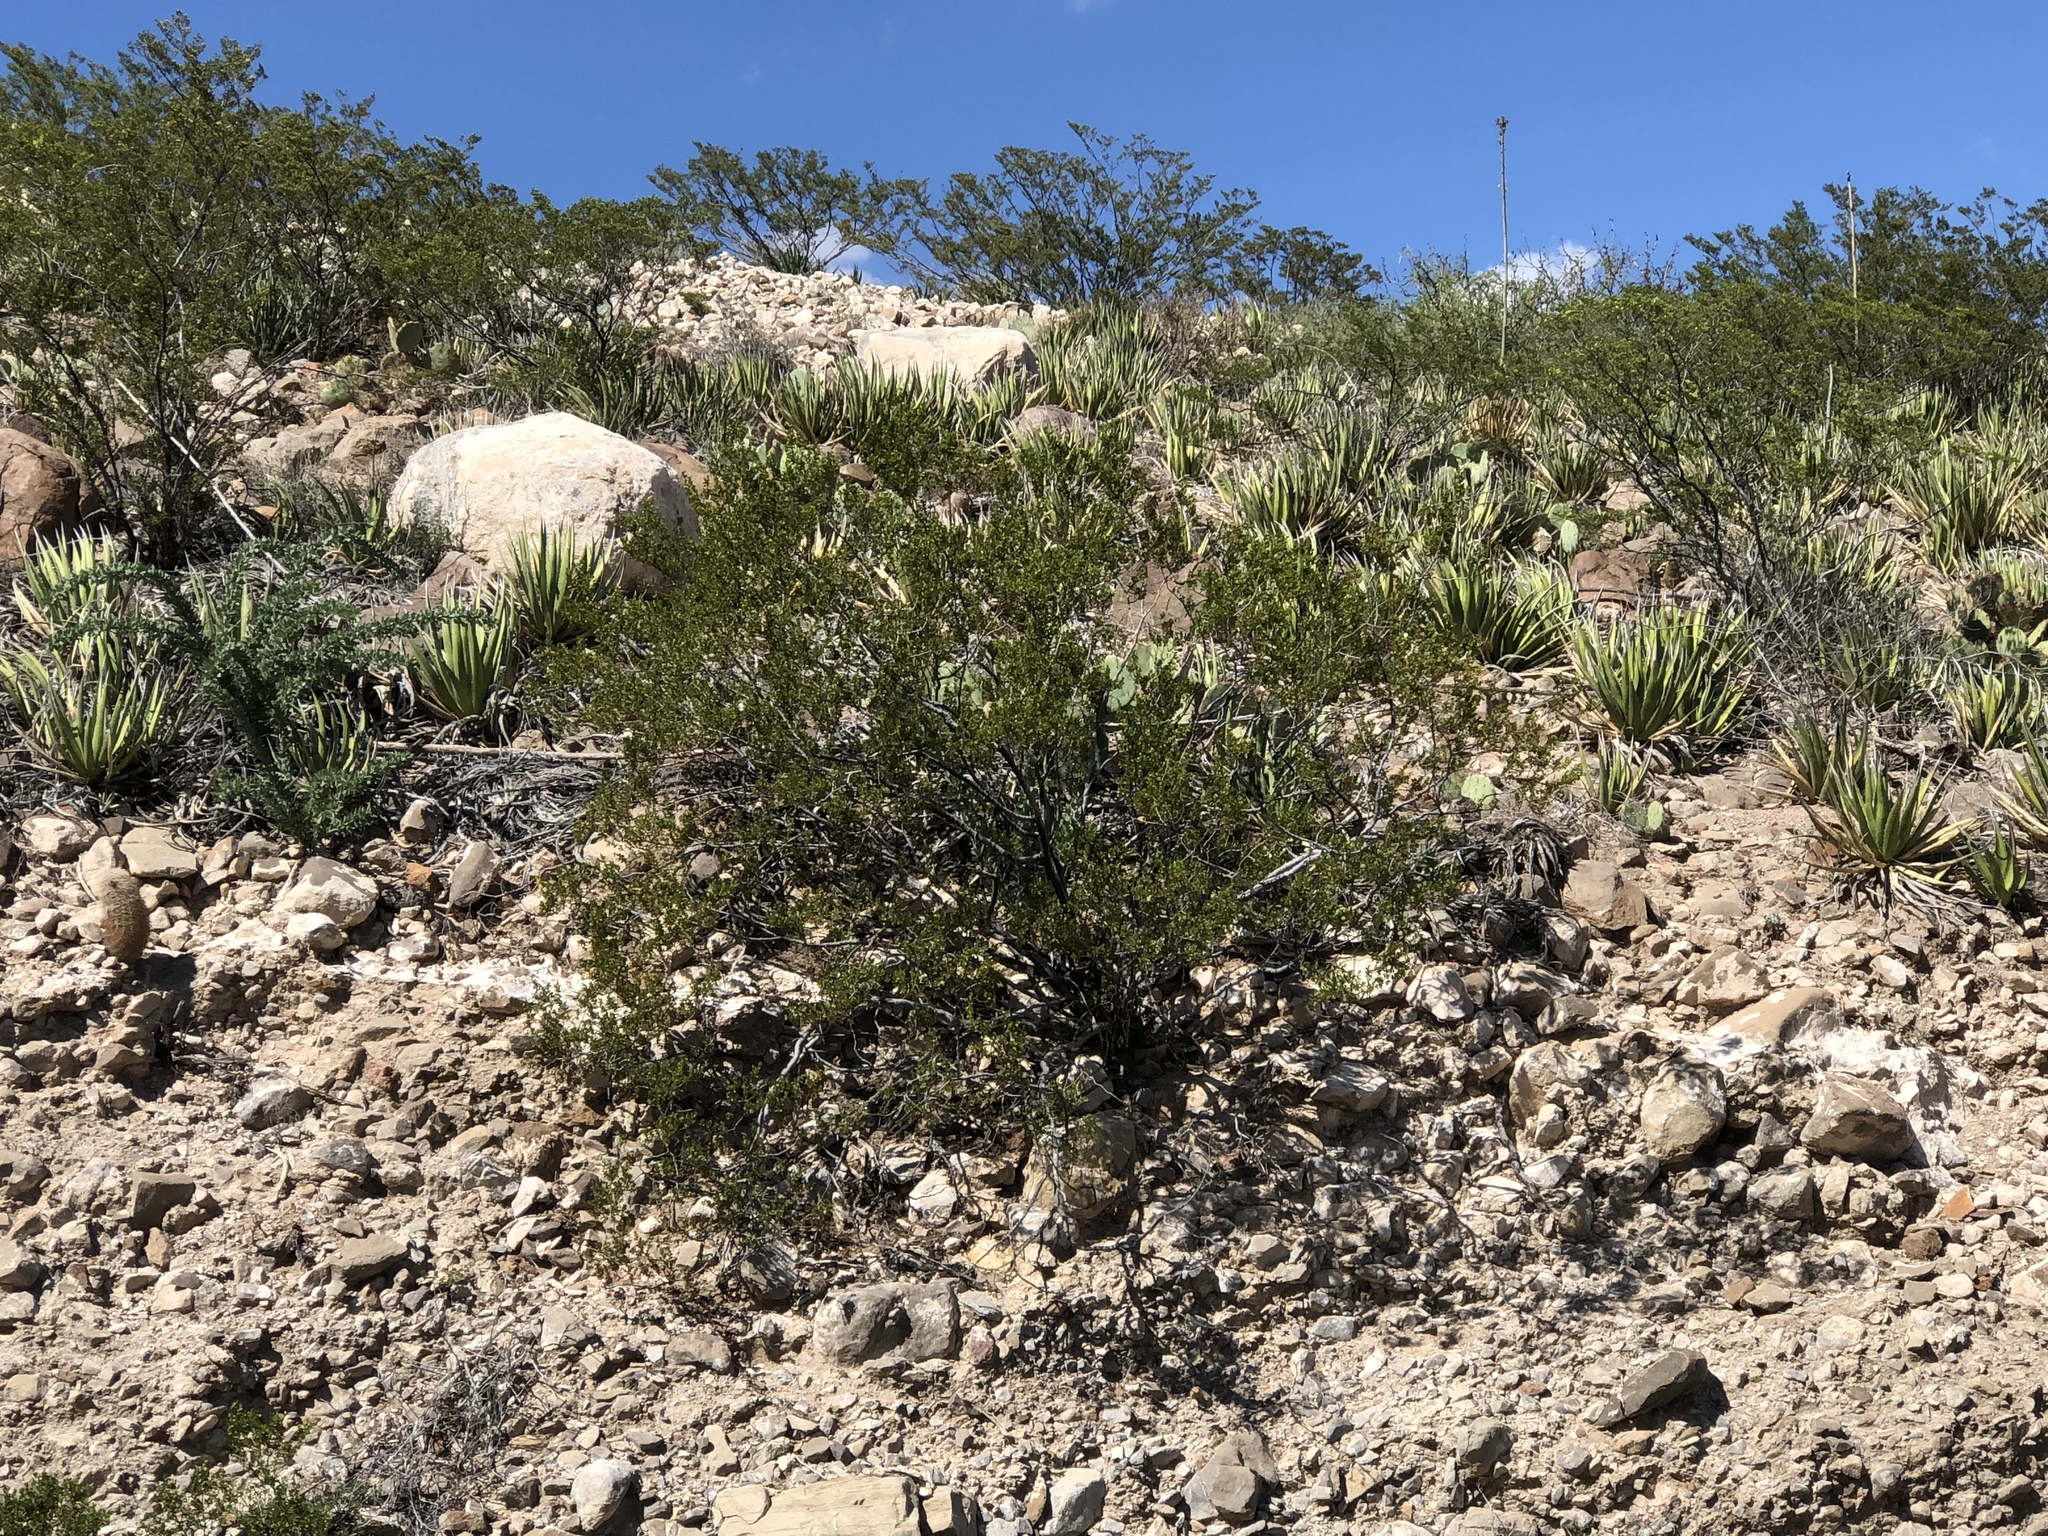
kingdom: Plantae
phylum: Tracheophyta
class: Magnoliopsida
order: Zygophyllales
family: Zygophyllaceae
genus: Larrea
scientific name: Larrea tridentata
